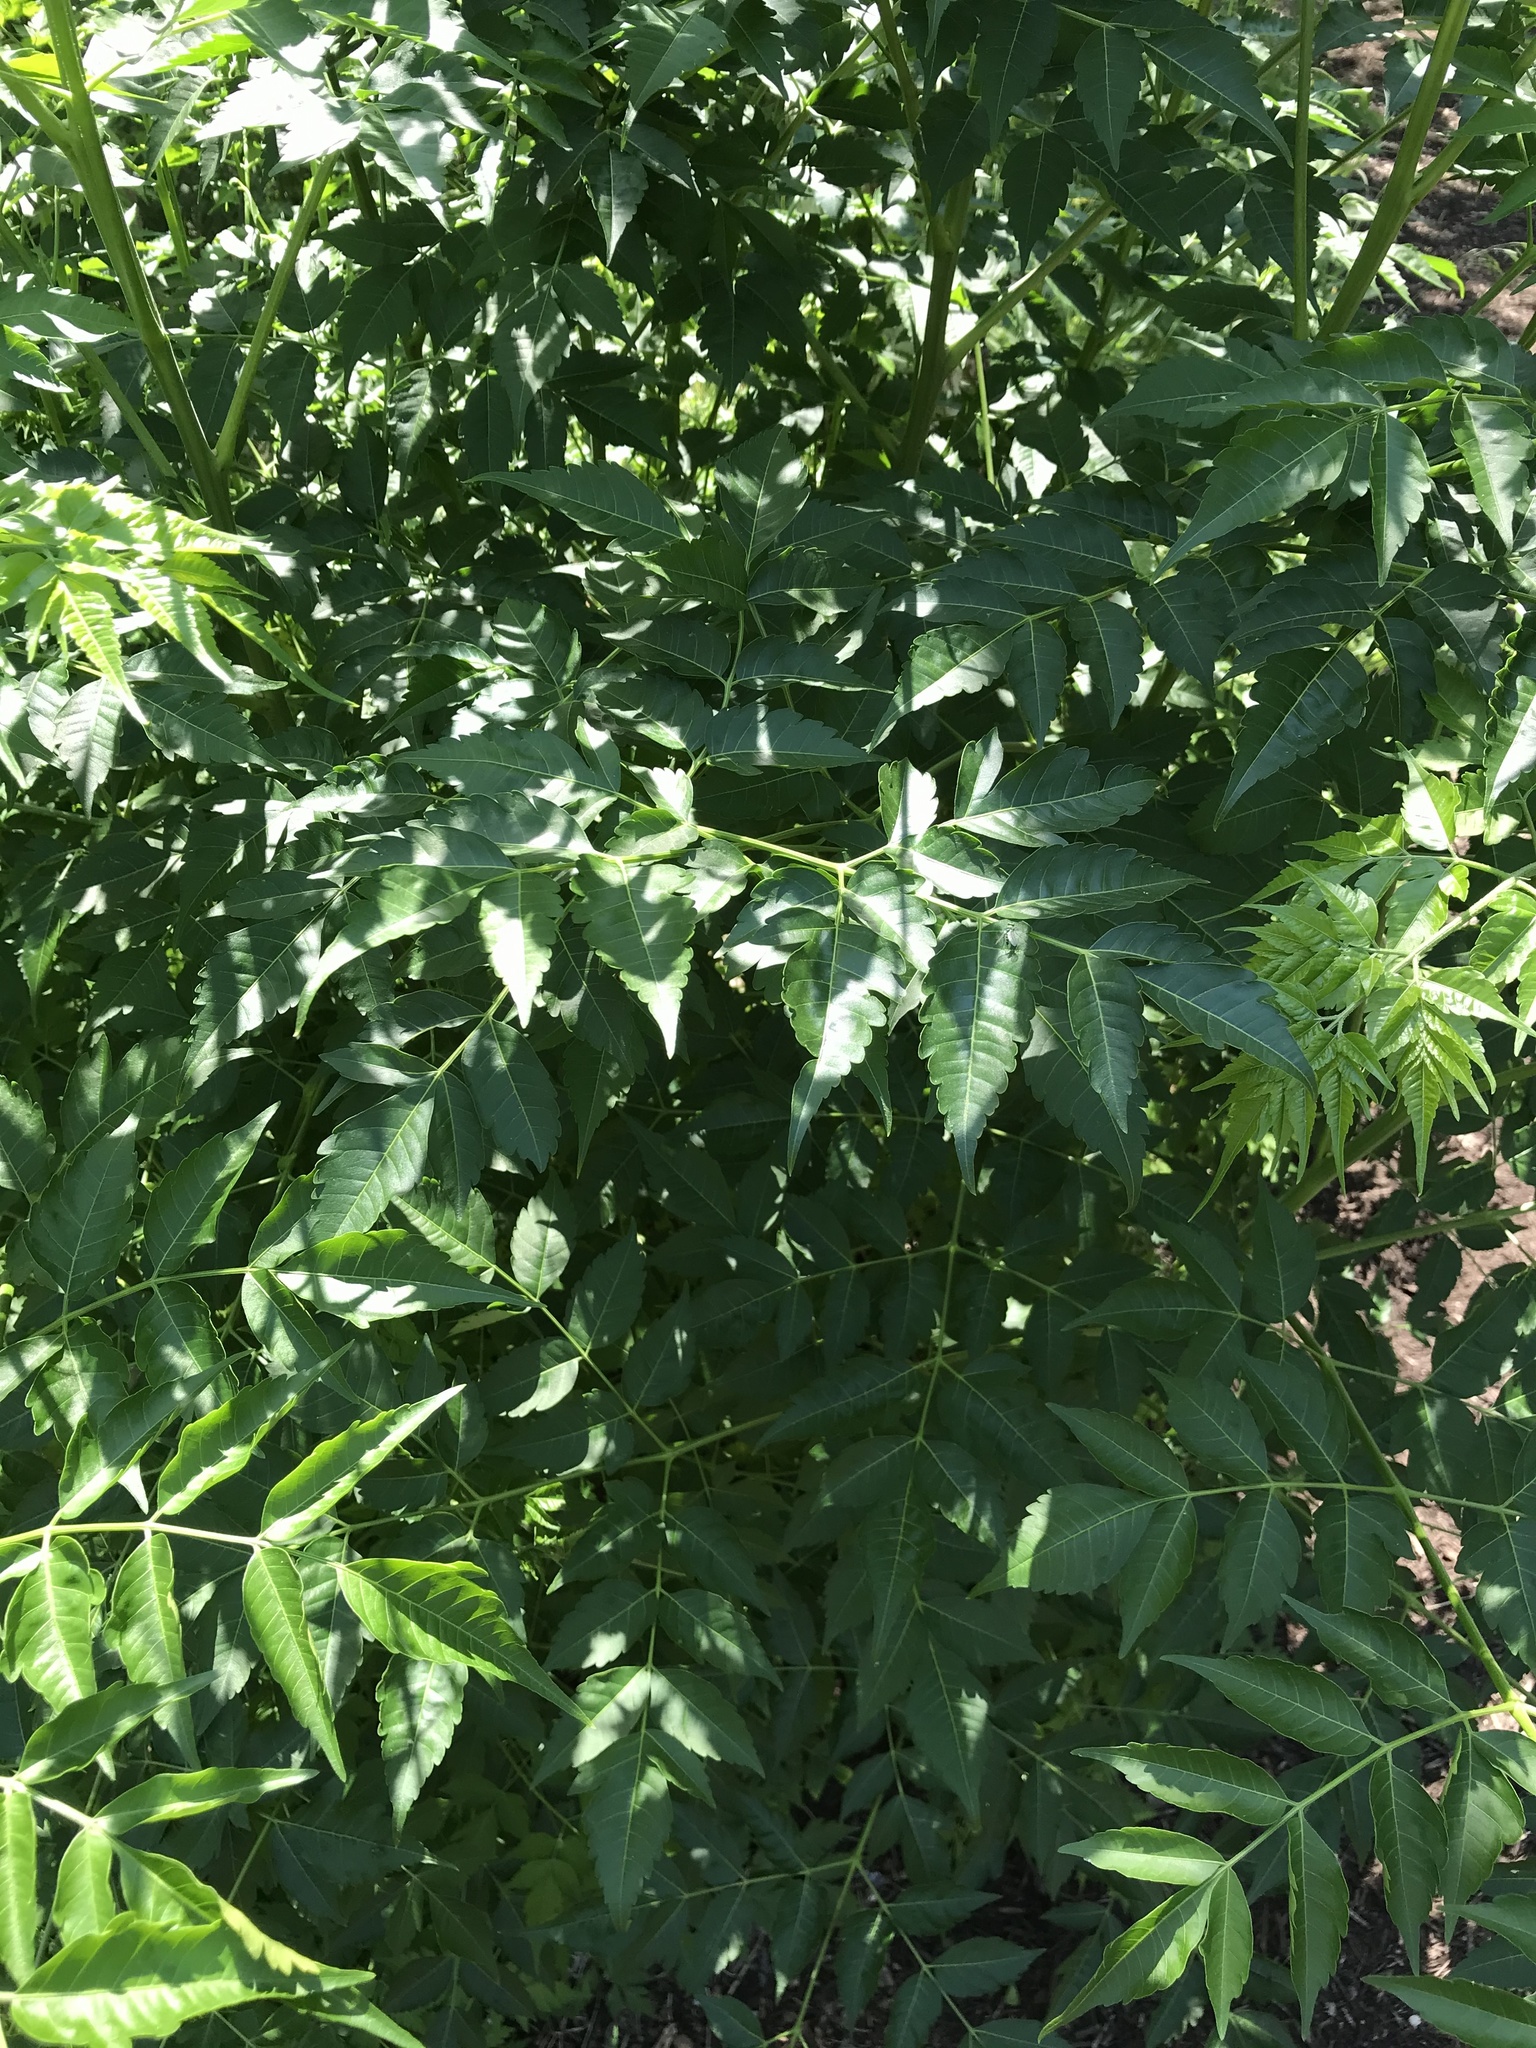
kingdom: Plantae
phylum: Tracheophyta
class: Magnoliopsida
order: Sapindales
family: Meliaceae
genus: Melia
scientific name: Melia azedarach
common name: Chinaberrytree
